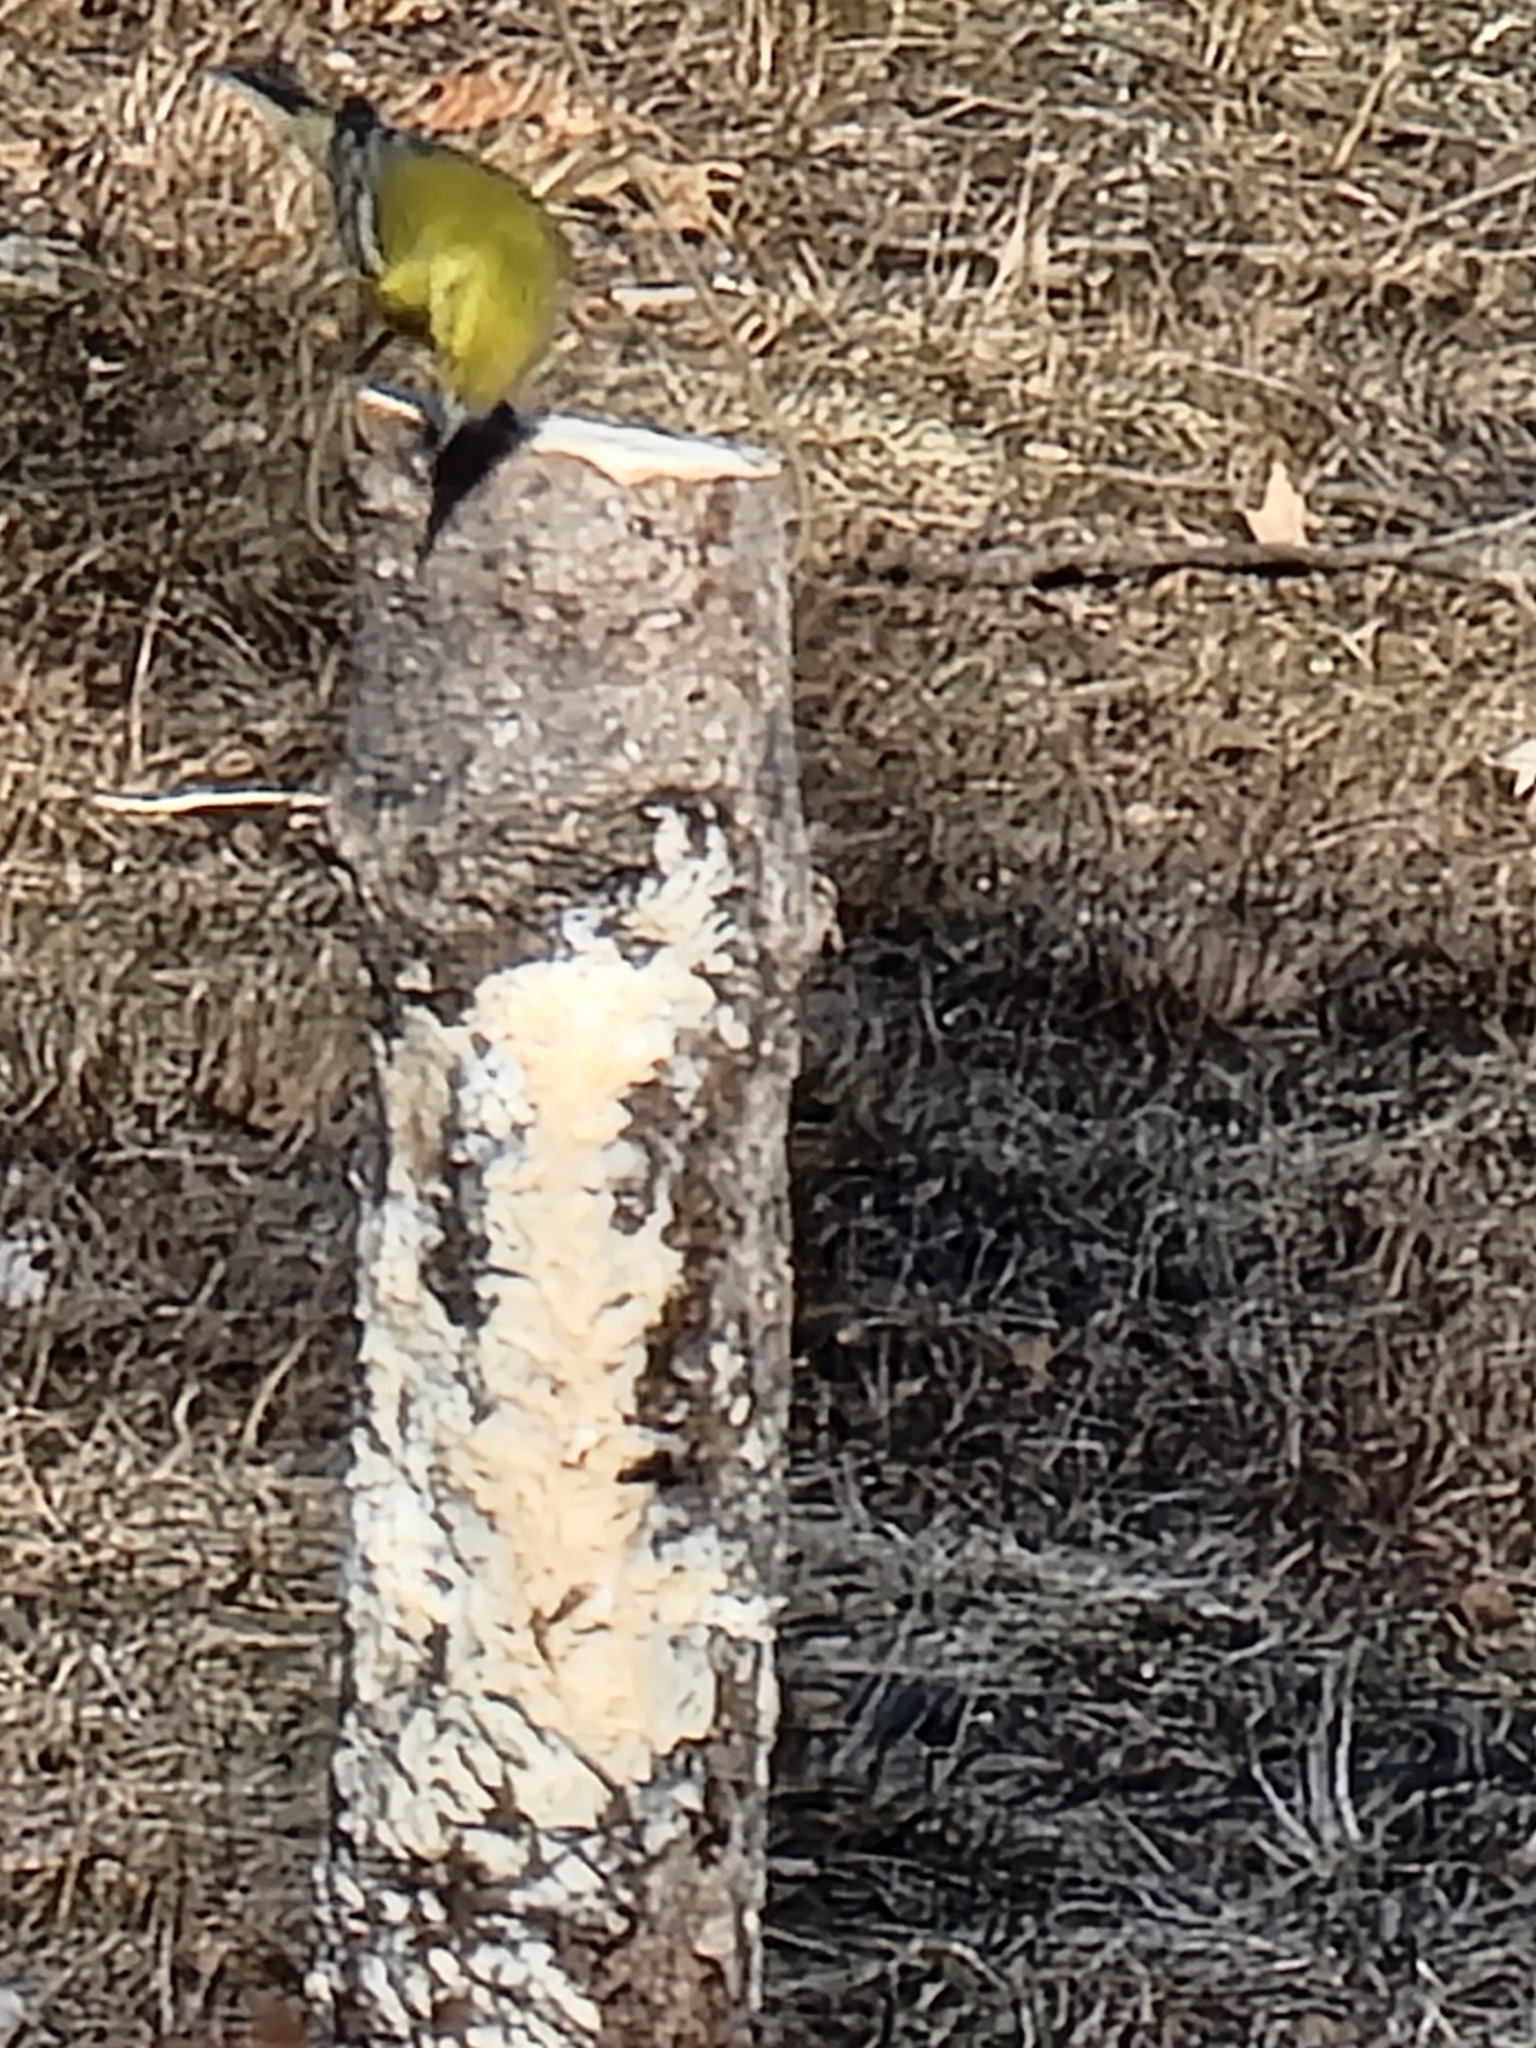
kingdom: Animalia
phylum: Chordata
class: Aves
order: Passeriformes
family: Parulidae
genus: Setophaga
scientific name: Setophaga pinus
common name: Pine warbler
